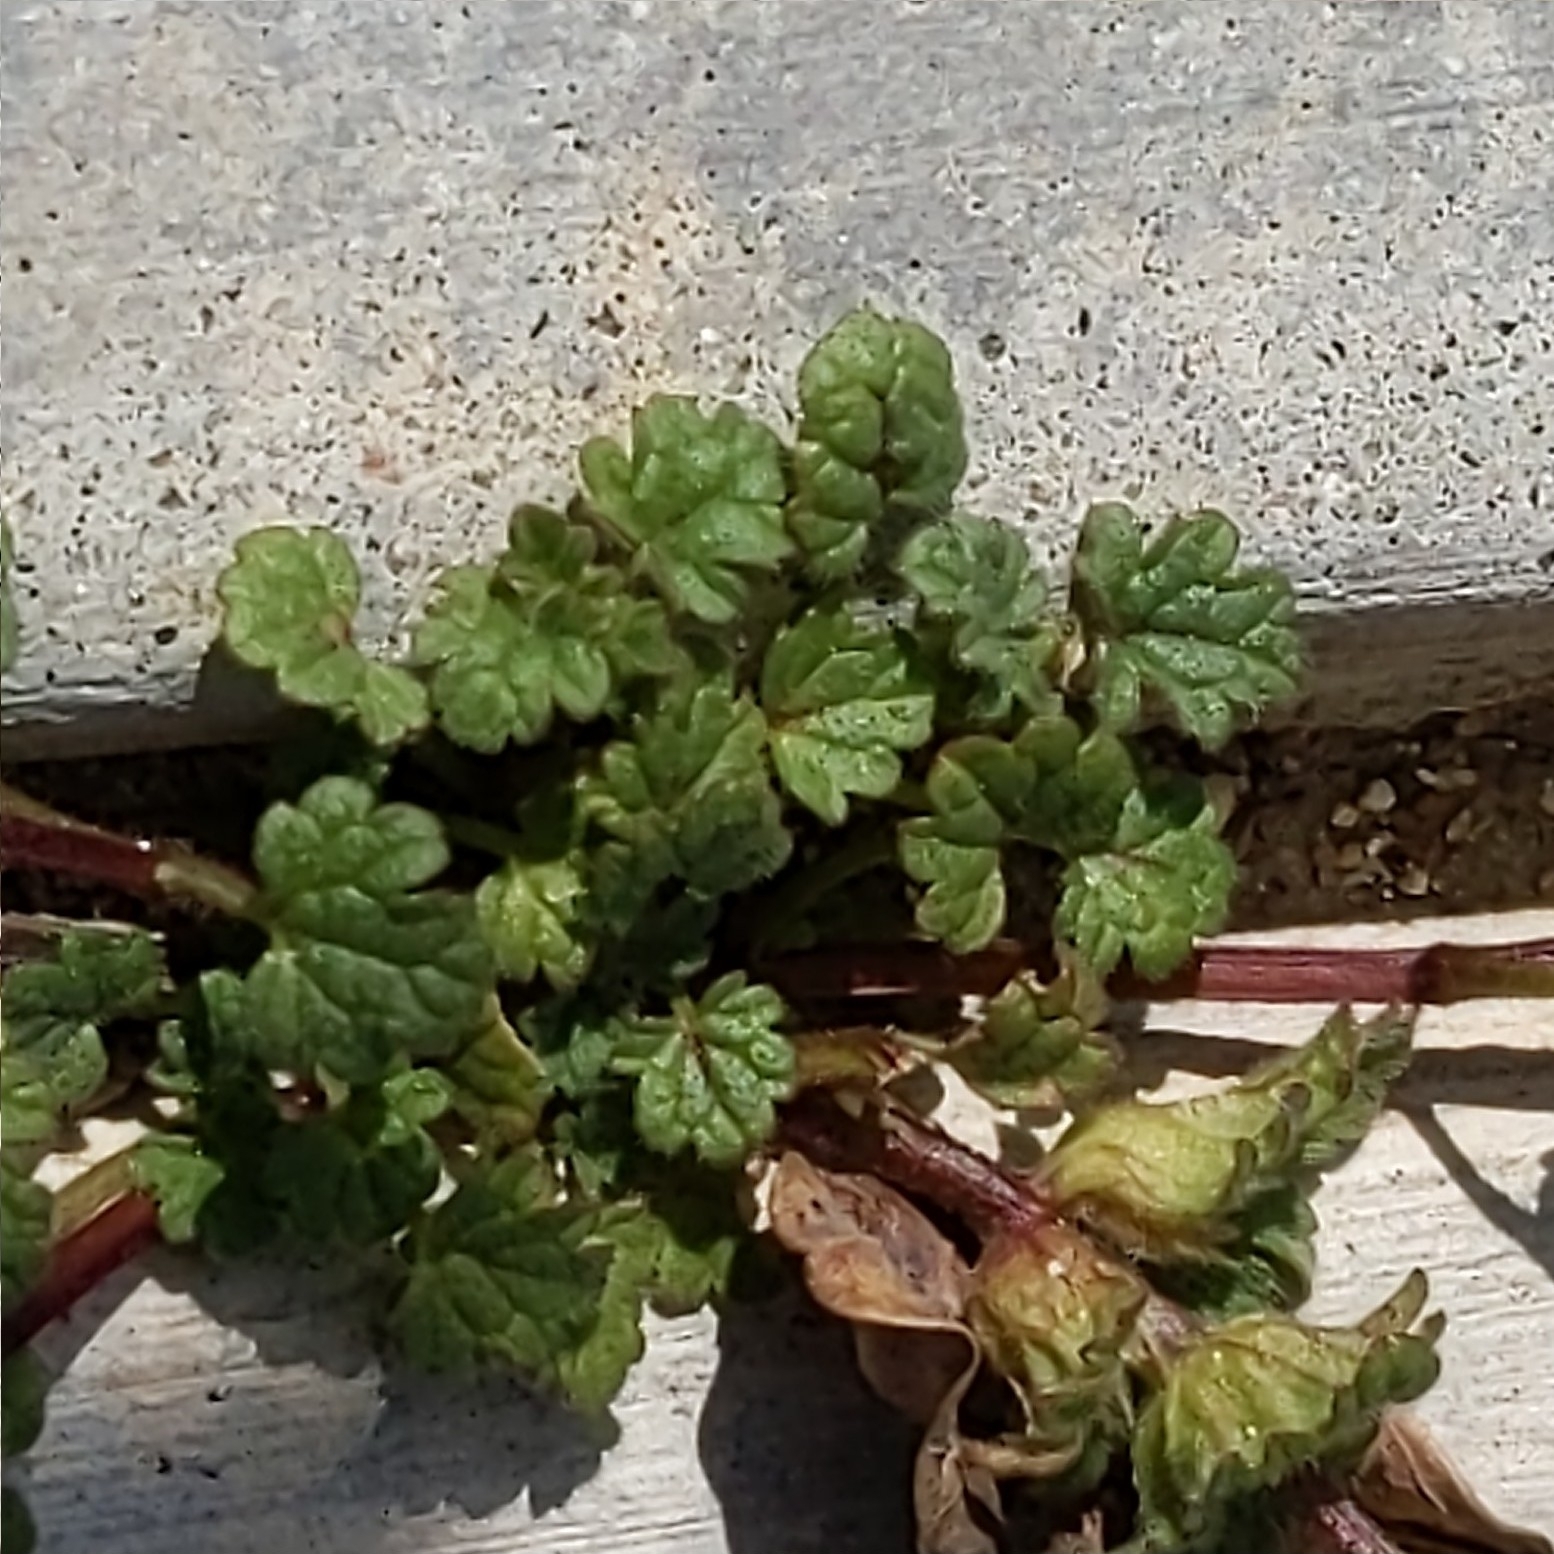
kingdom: Plantae
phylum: Tracheophyta
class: Magnoliopsida
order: Lamiales
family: Lamiaceae
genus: Lamium
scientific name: Lamium amplexicaule
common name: Henbit dead-nettle
